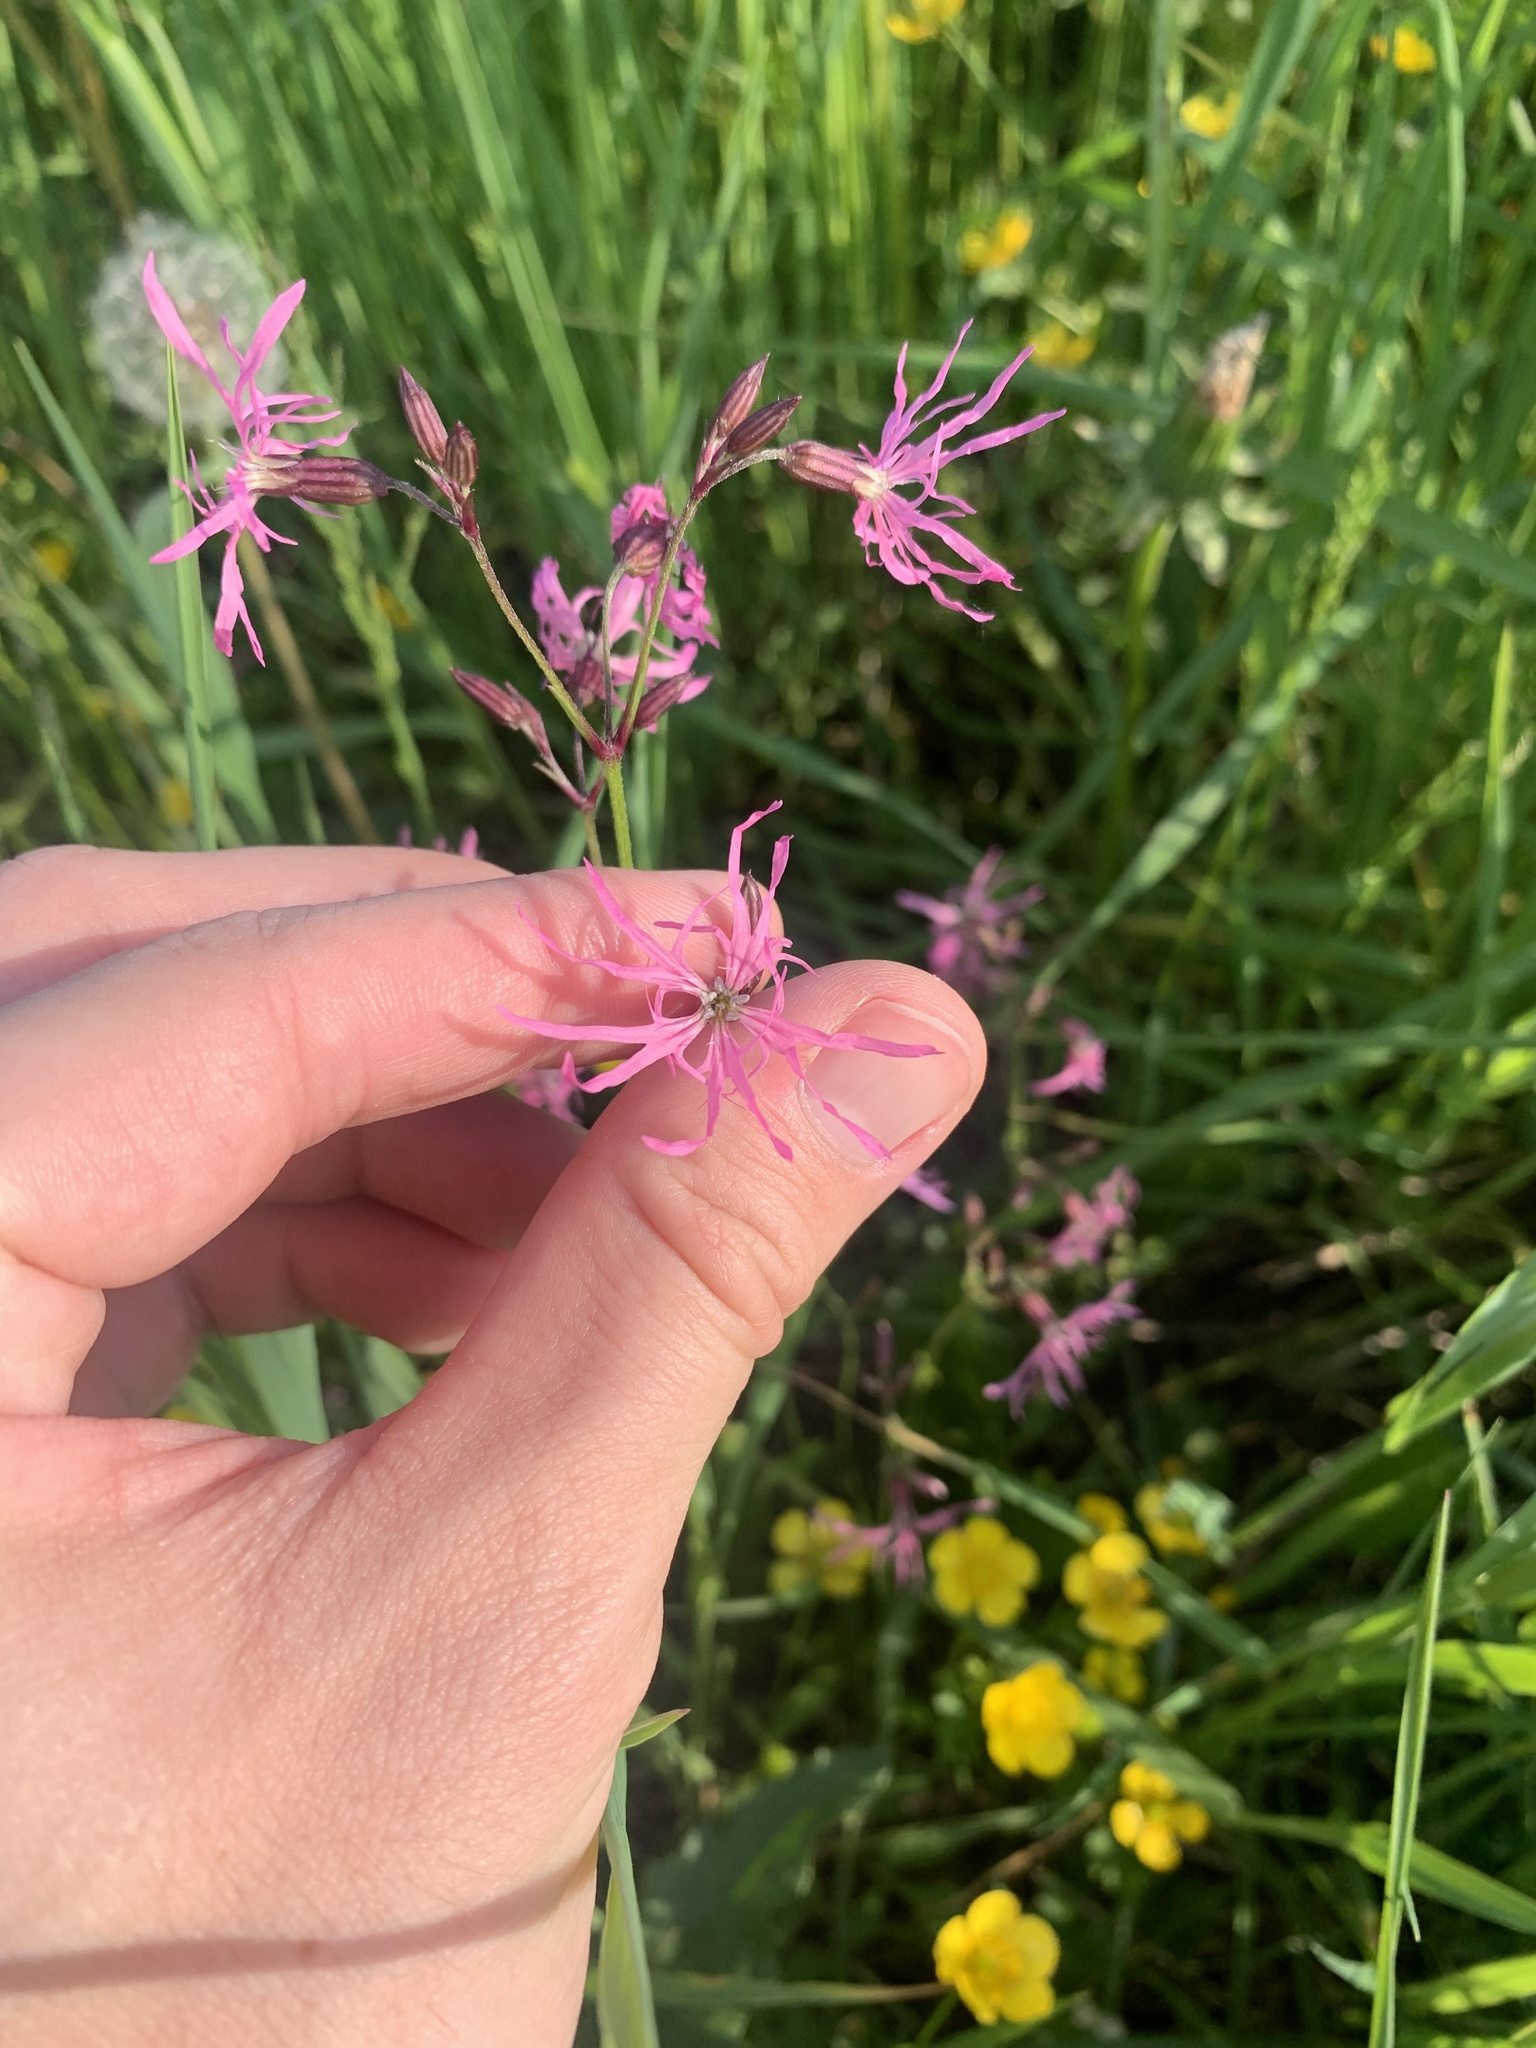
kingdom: Plantae
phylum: Tracheophyta
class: Magnoliopsida
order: Caryophyllales
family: Caryophyllaceae
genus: Silene
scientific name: Silene flos-cuculi
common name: Ragged-robin
